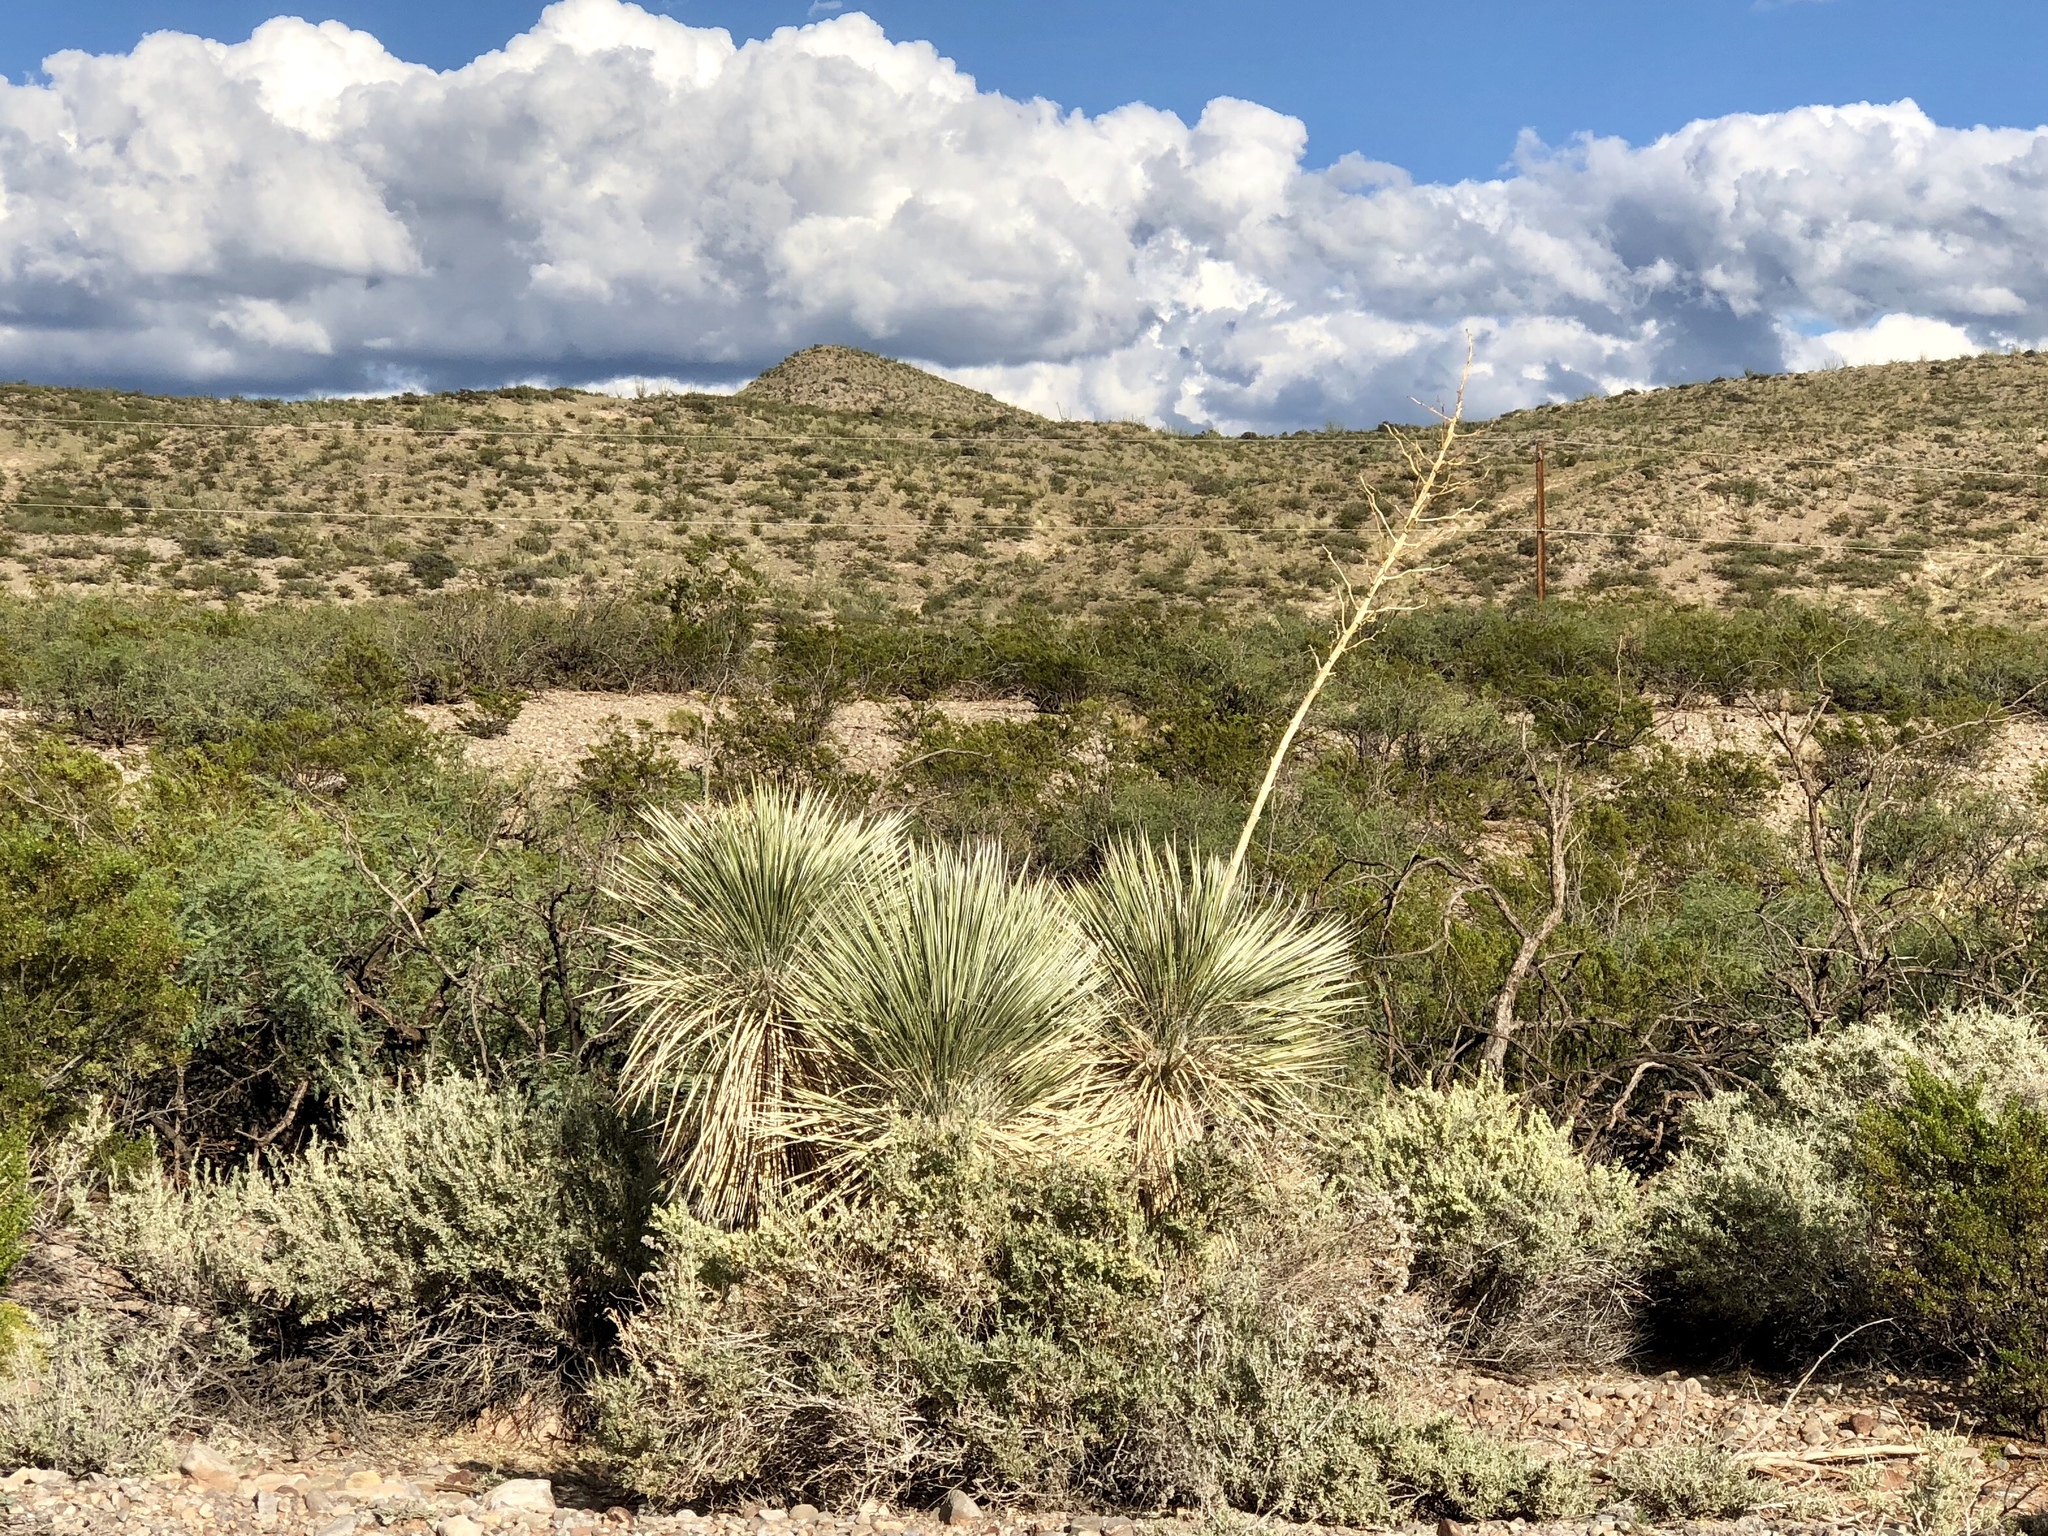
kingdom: Plantae
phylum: Tracheophyta
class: Liliopsida
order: Asparagales
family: Asparagaceae
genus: Yucca
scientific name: Yucca elata
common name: Palmella
